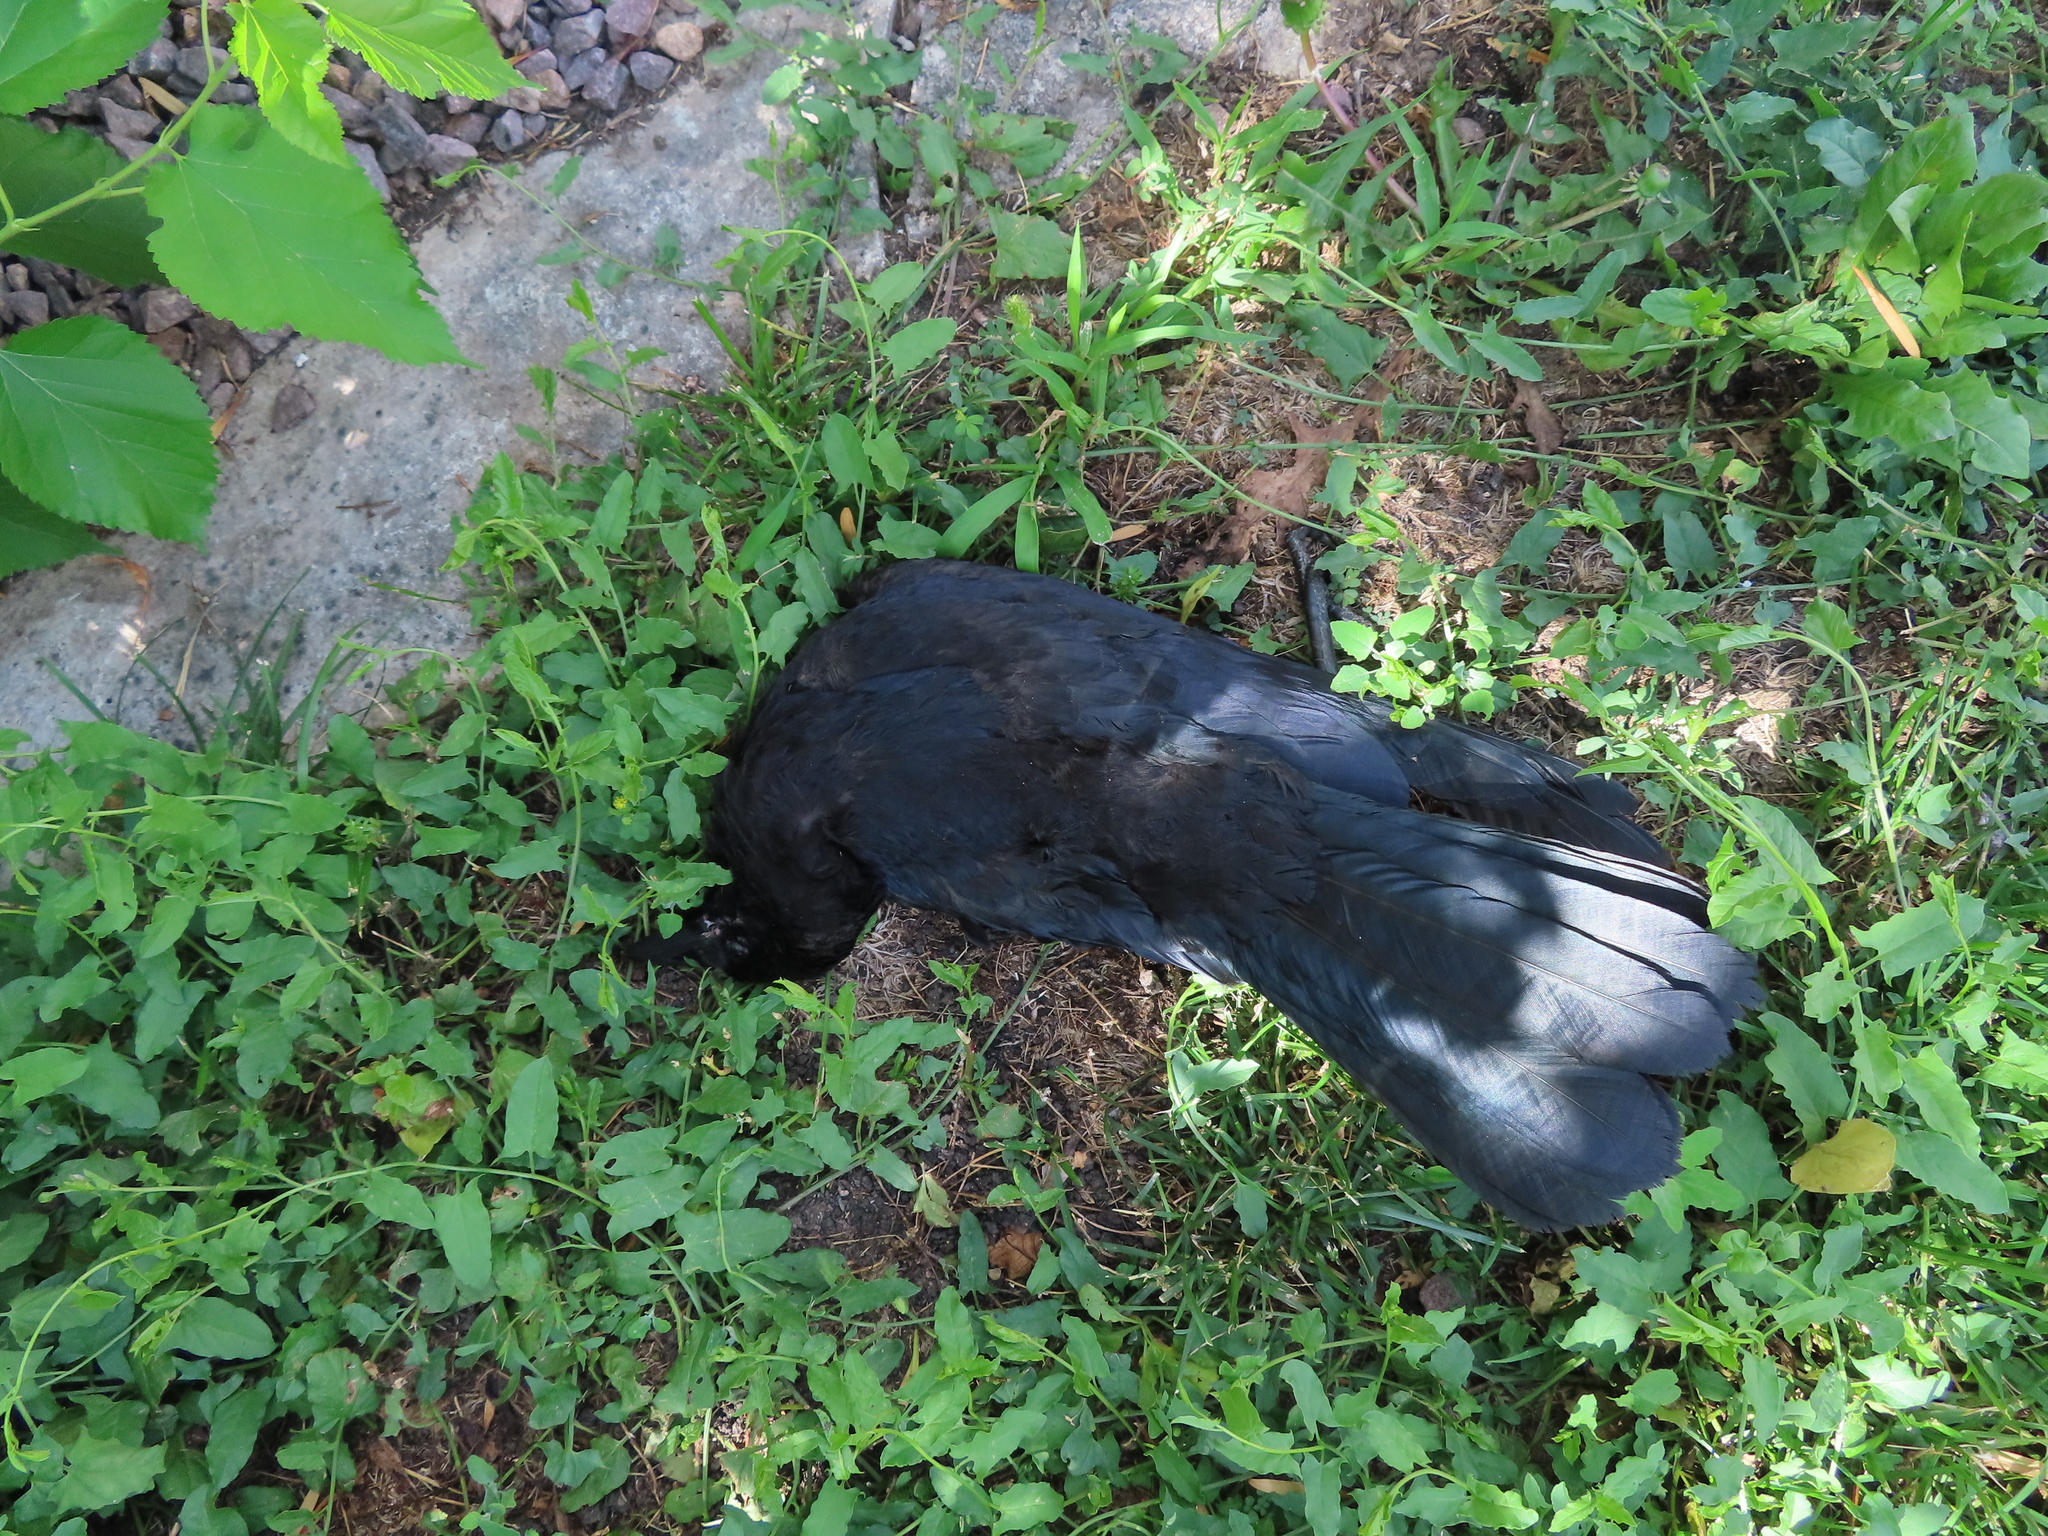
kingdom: Animalia
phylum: Chordata
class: Aves
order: Passeriformes
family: Corvidae
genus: Corvus
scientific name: Corvus brachyrhynchos
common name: American crow
